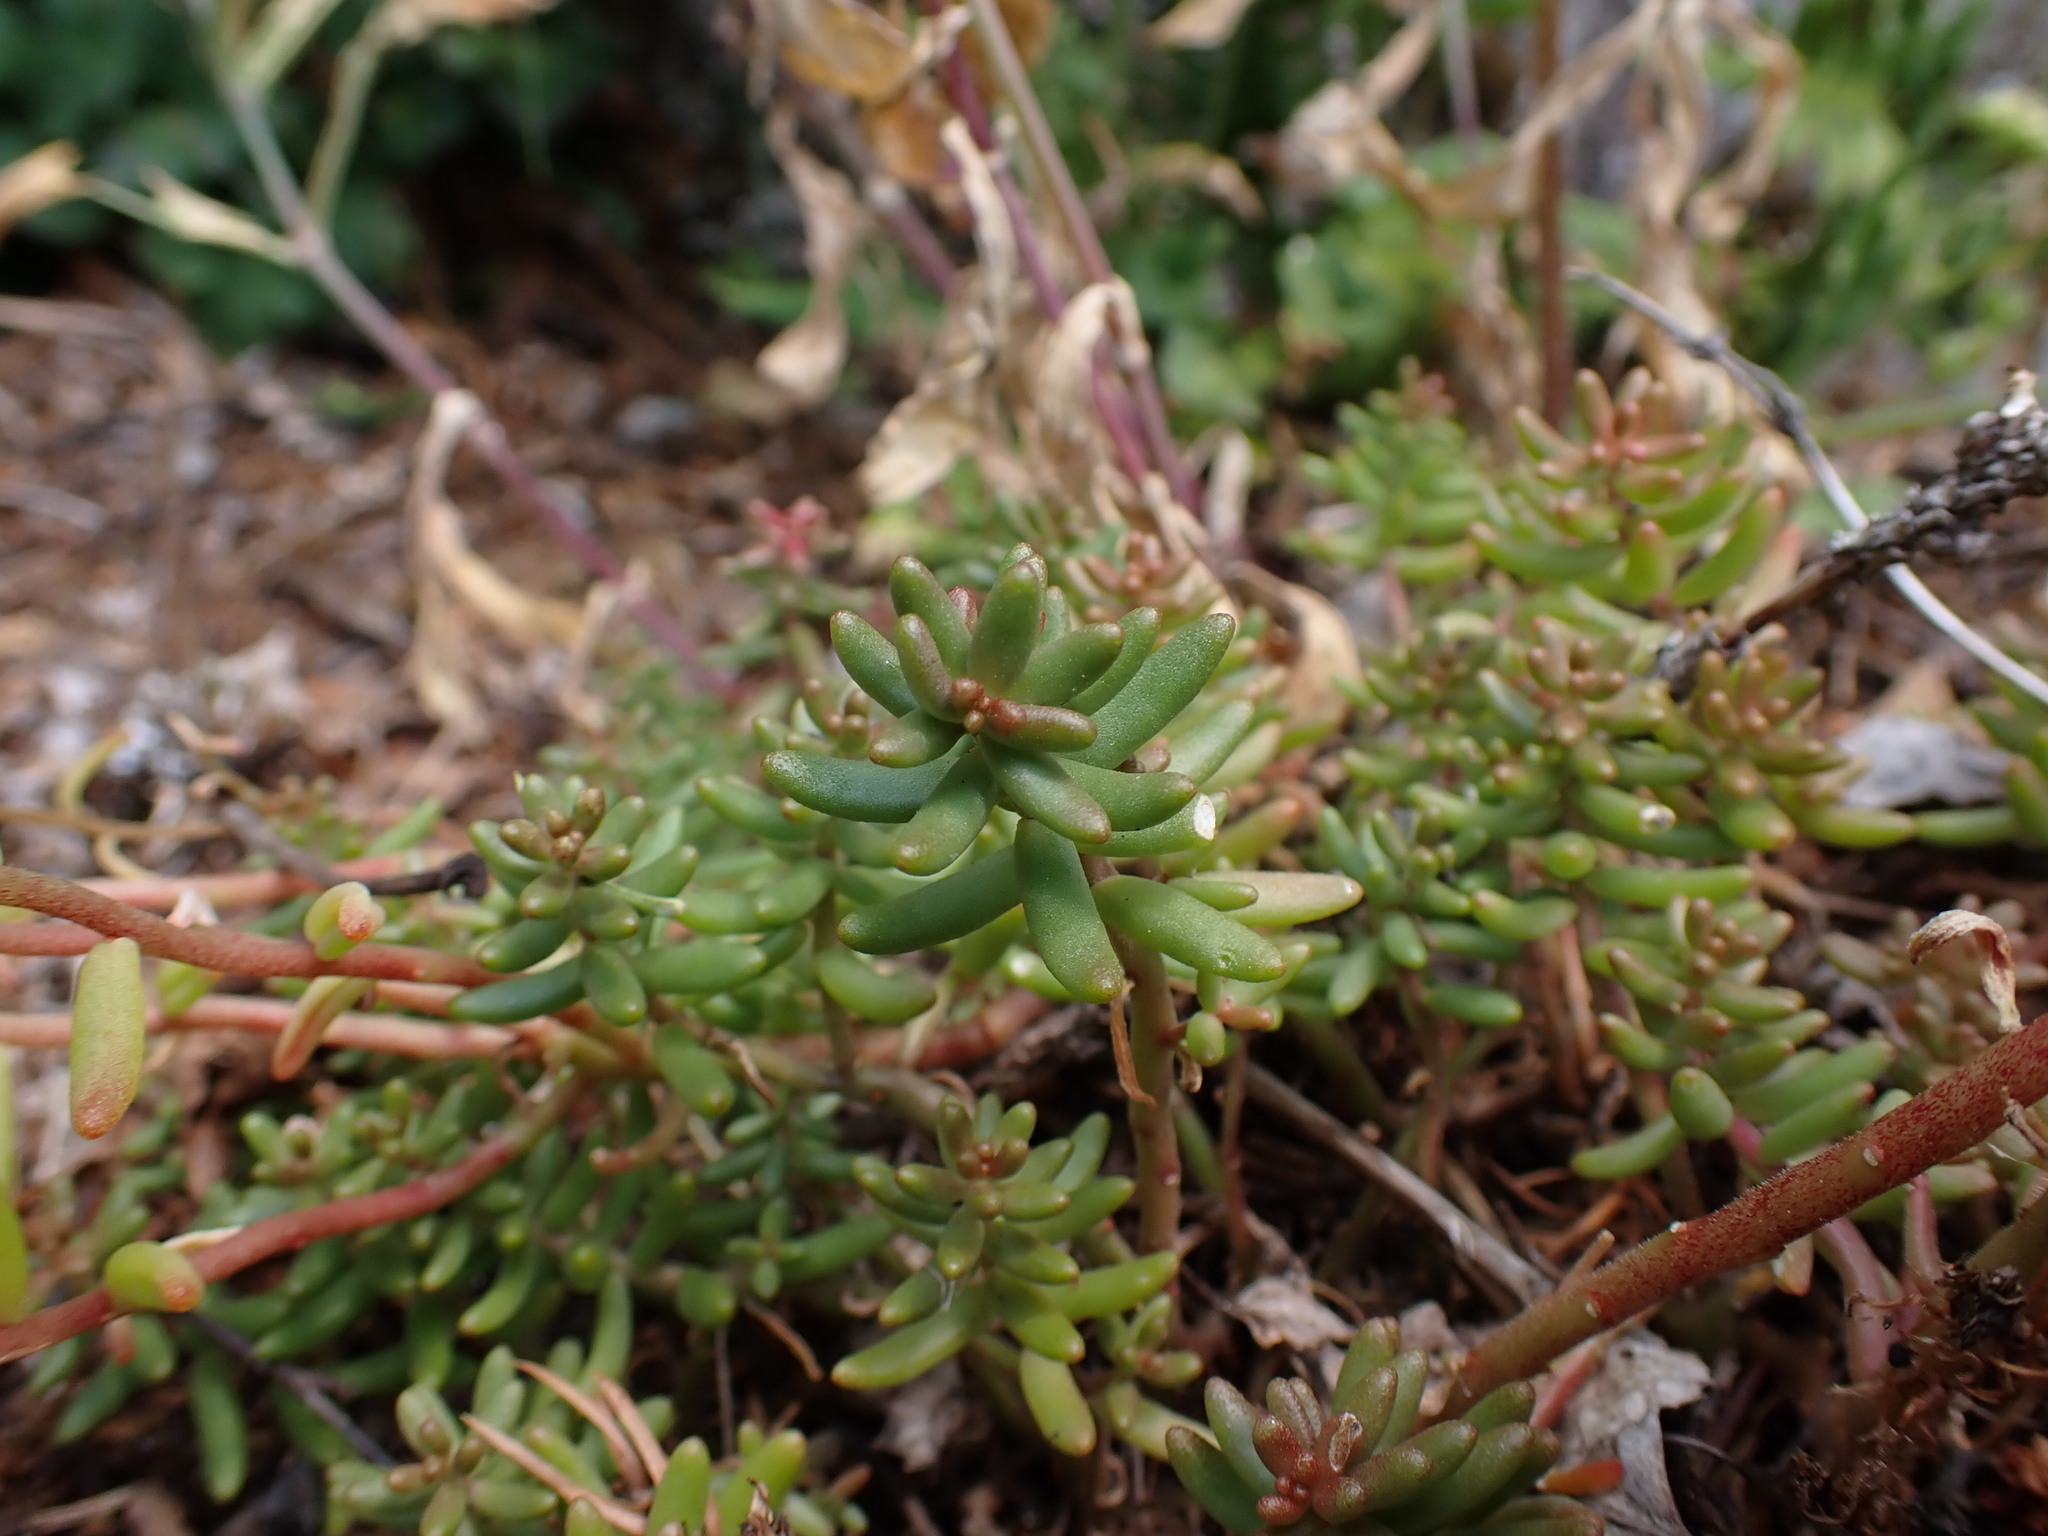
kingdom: Plantae
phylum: Tracheophyta
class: Magnoliopsida
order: Saxifragales
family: Crassulaceae
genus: Sedum
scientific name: Sedum album
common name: White stonecrop
